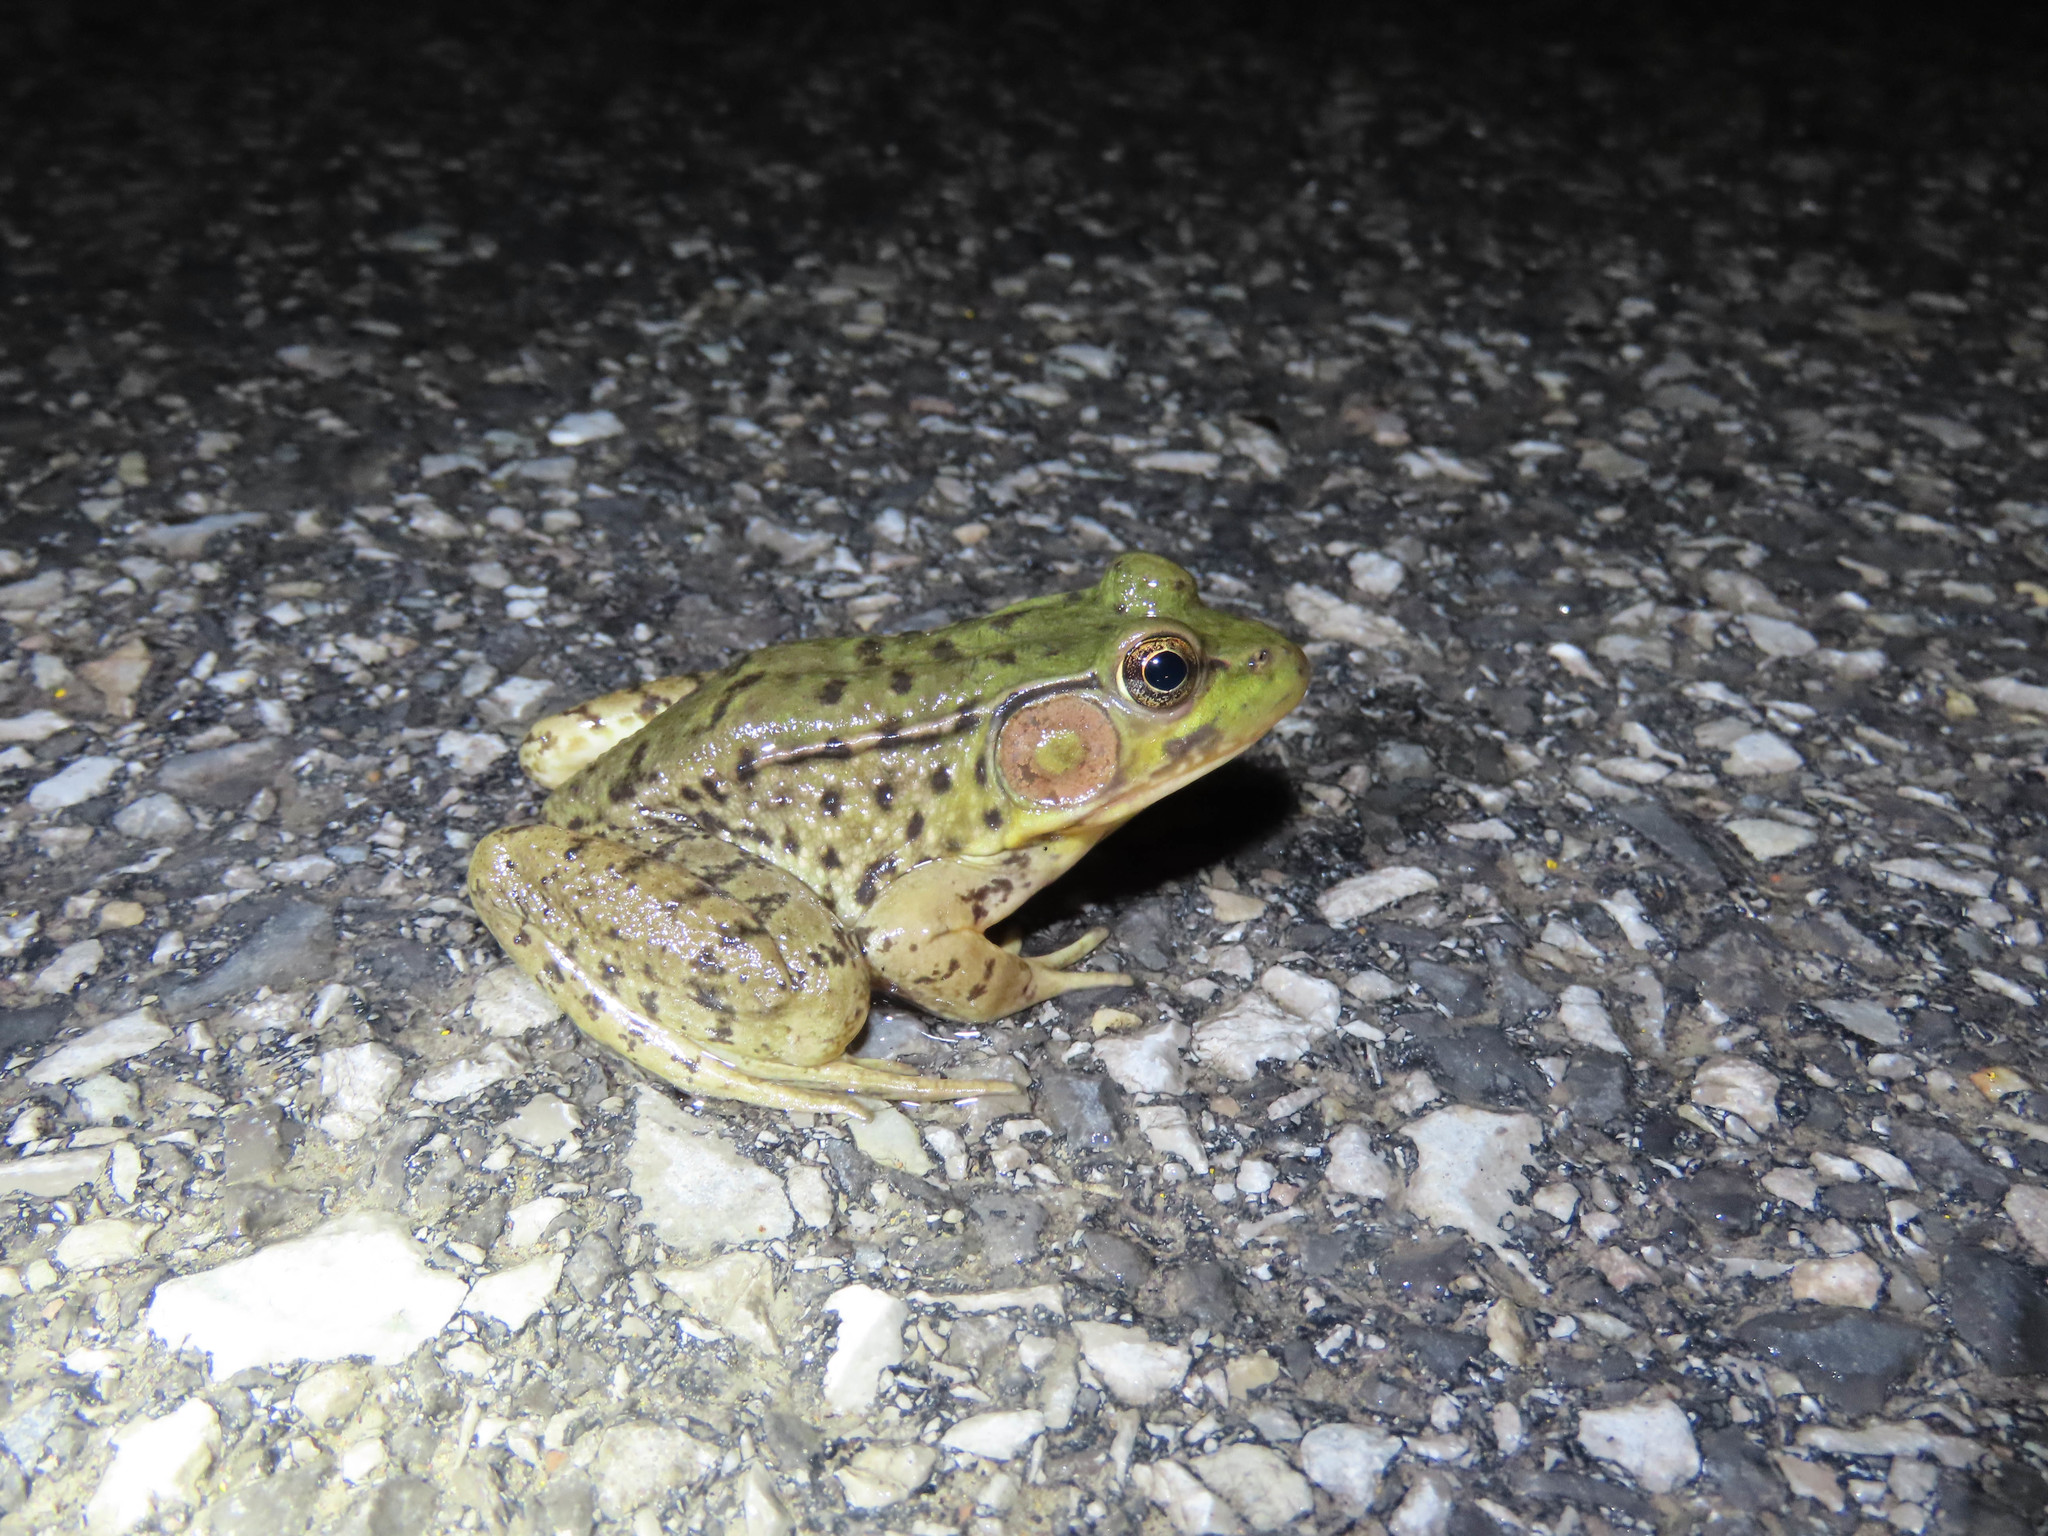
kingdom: Animalia
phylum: Chordata
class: Amphibia
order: Anura
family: Ranidae
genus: Lithobates
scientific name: Lithobates clamitans
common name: Green frog
